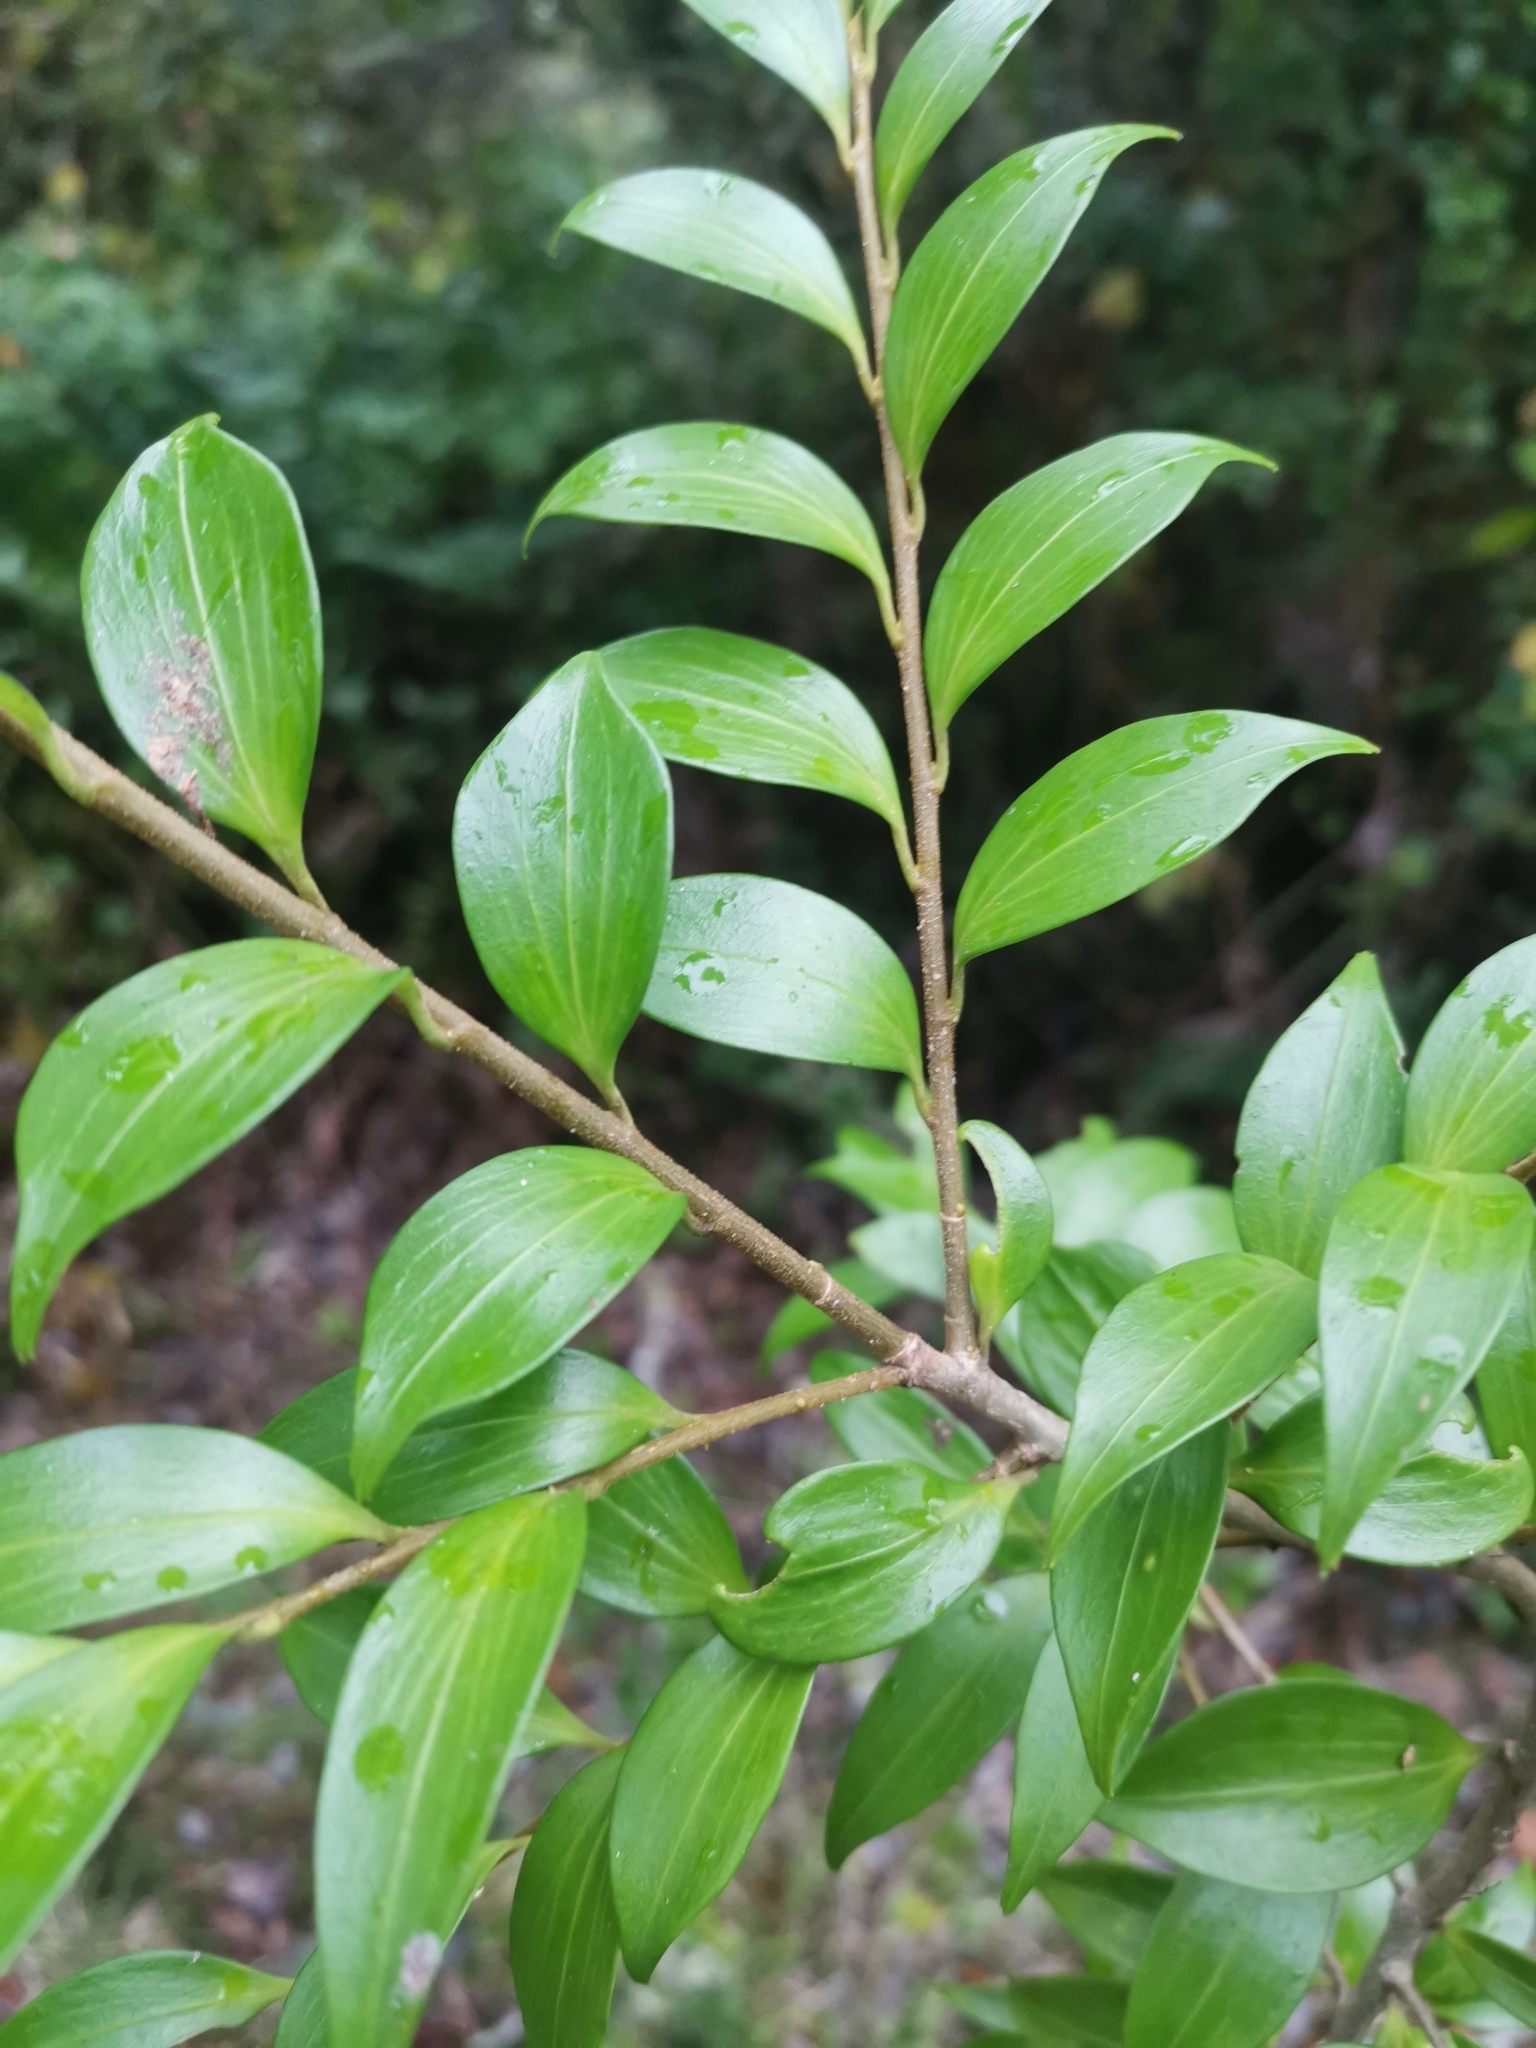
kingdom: Plantae
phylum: Tracheophyta
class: Magnoliopsida
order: Apiales
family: Griseliniaceae
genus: Griselinia
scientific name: Griselinia ruscifolia
